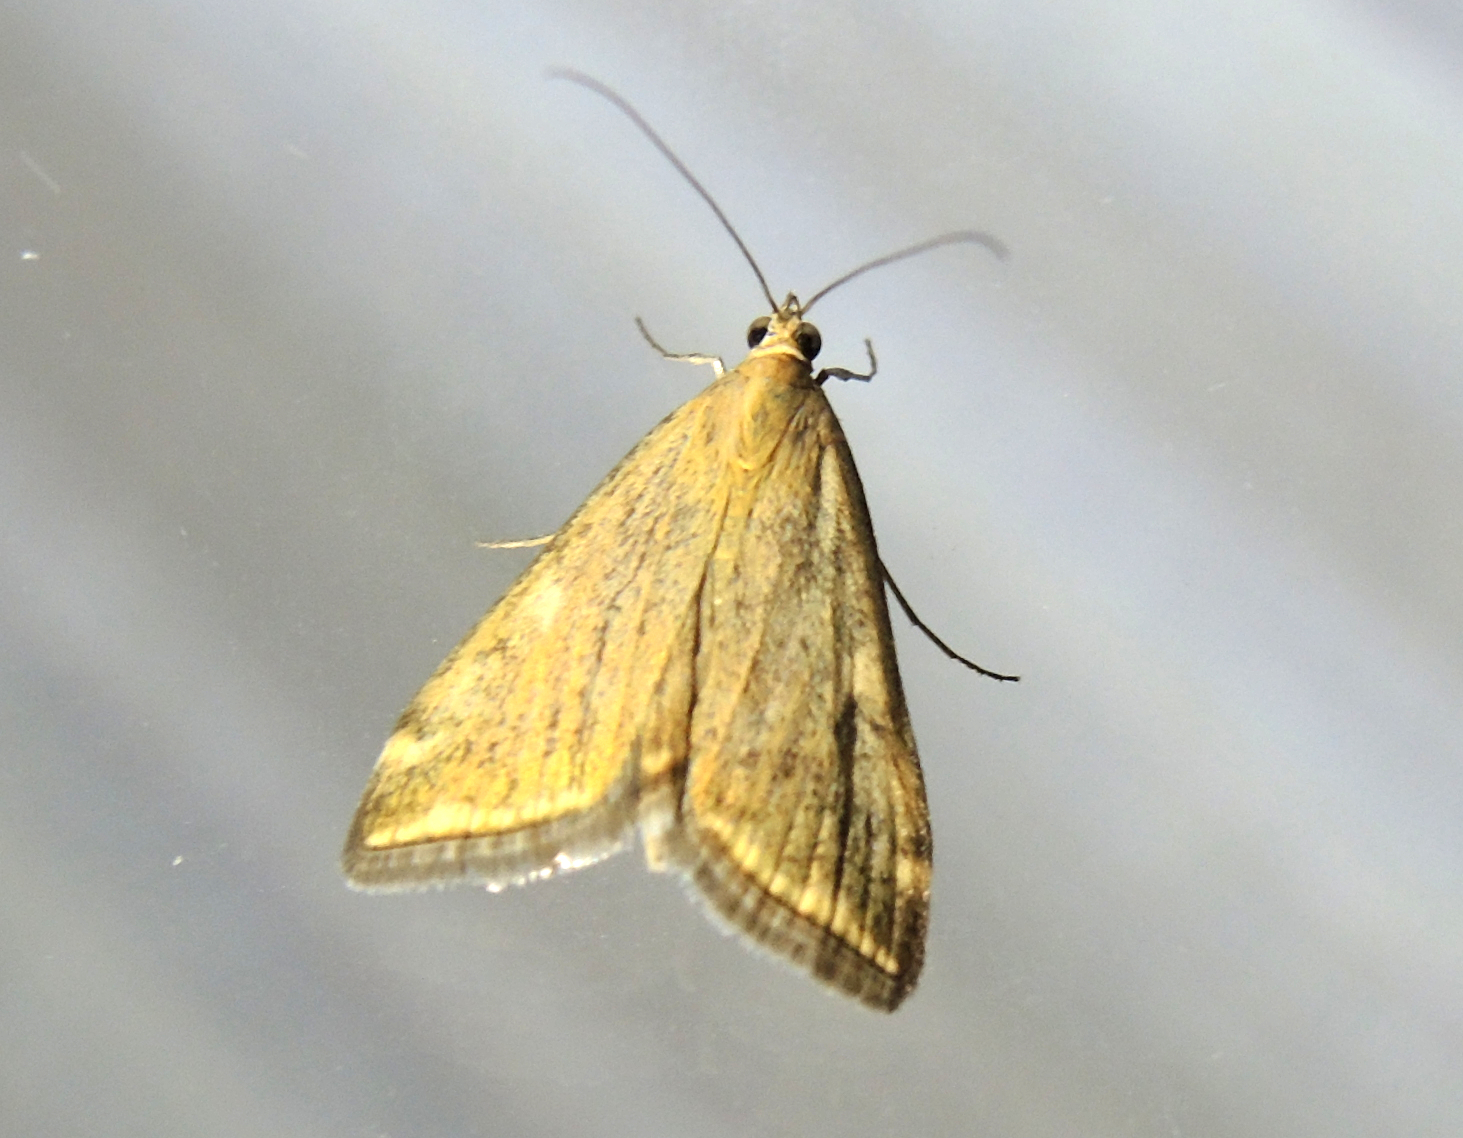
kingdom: Animalia
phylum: Arthropoda
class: Insecta
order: Lepidoptera
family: Crambidae
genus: Loxostege
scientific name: Loxostege sticticalis
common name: Crambid moth
